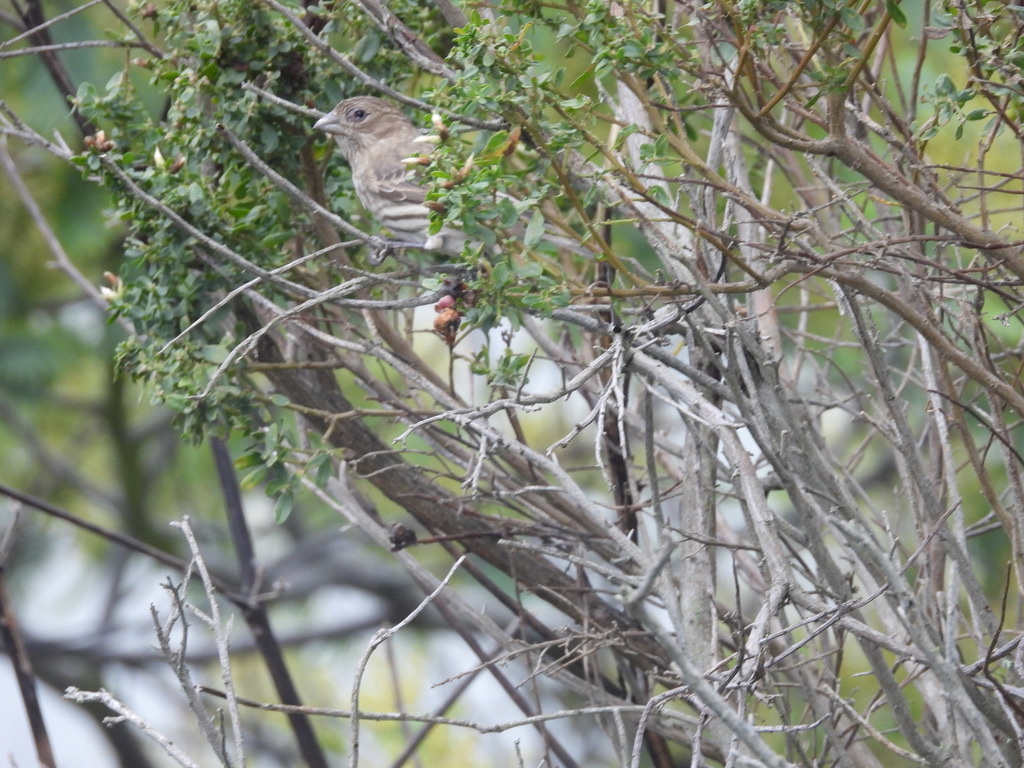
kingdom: Animalia
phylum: Chordata
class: Aves
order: Passeriformes
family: Fringillidae
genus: Haemorhous
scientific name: Haemorhous mexicanus
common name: House finch
